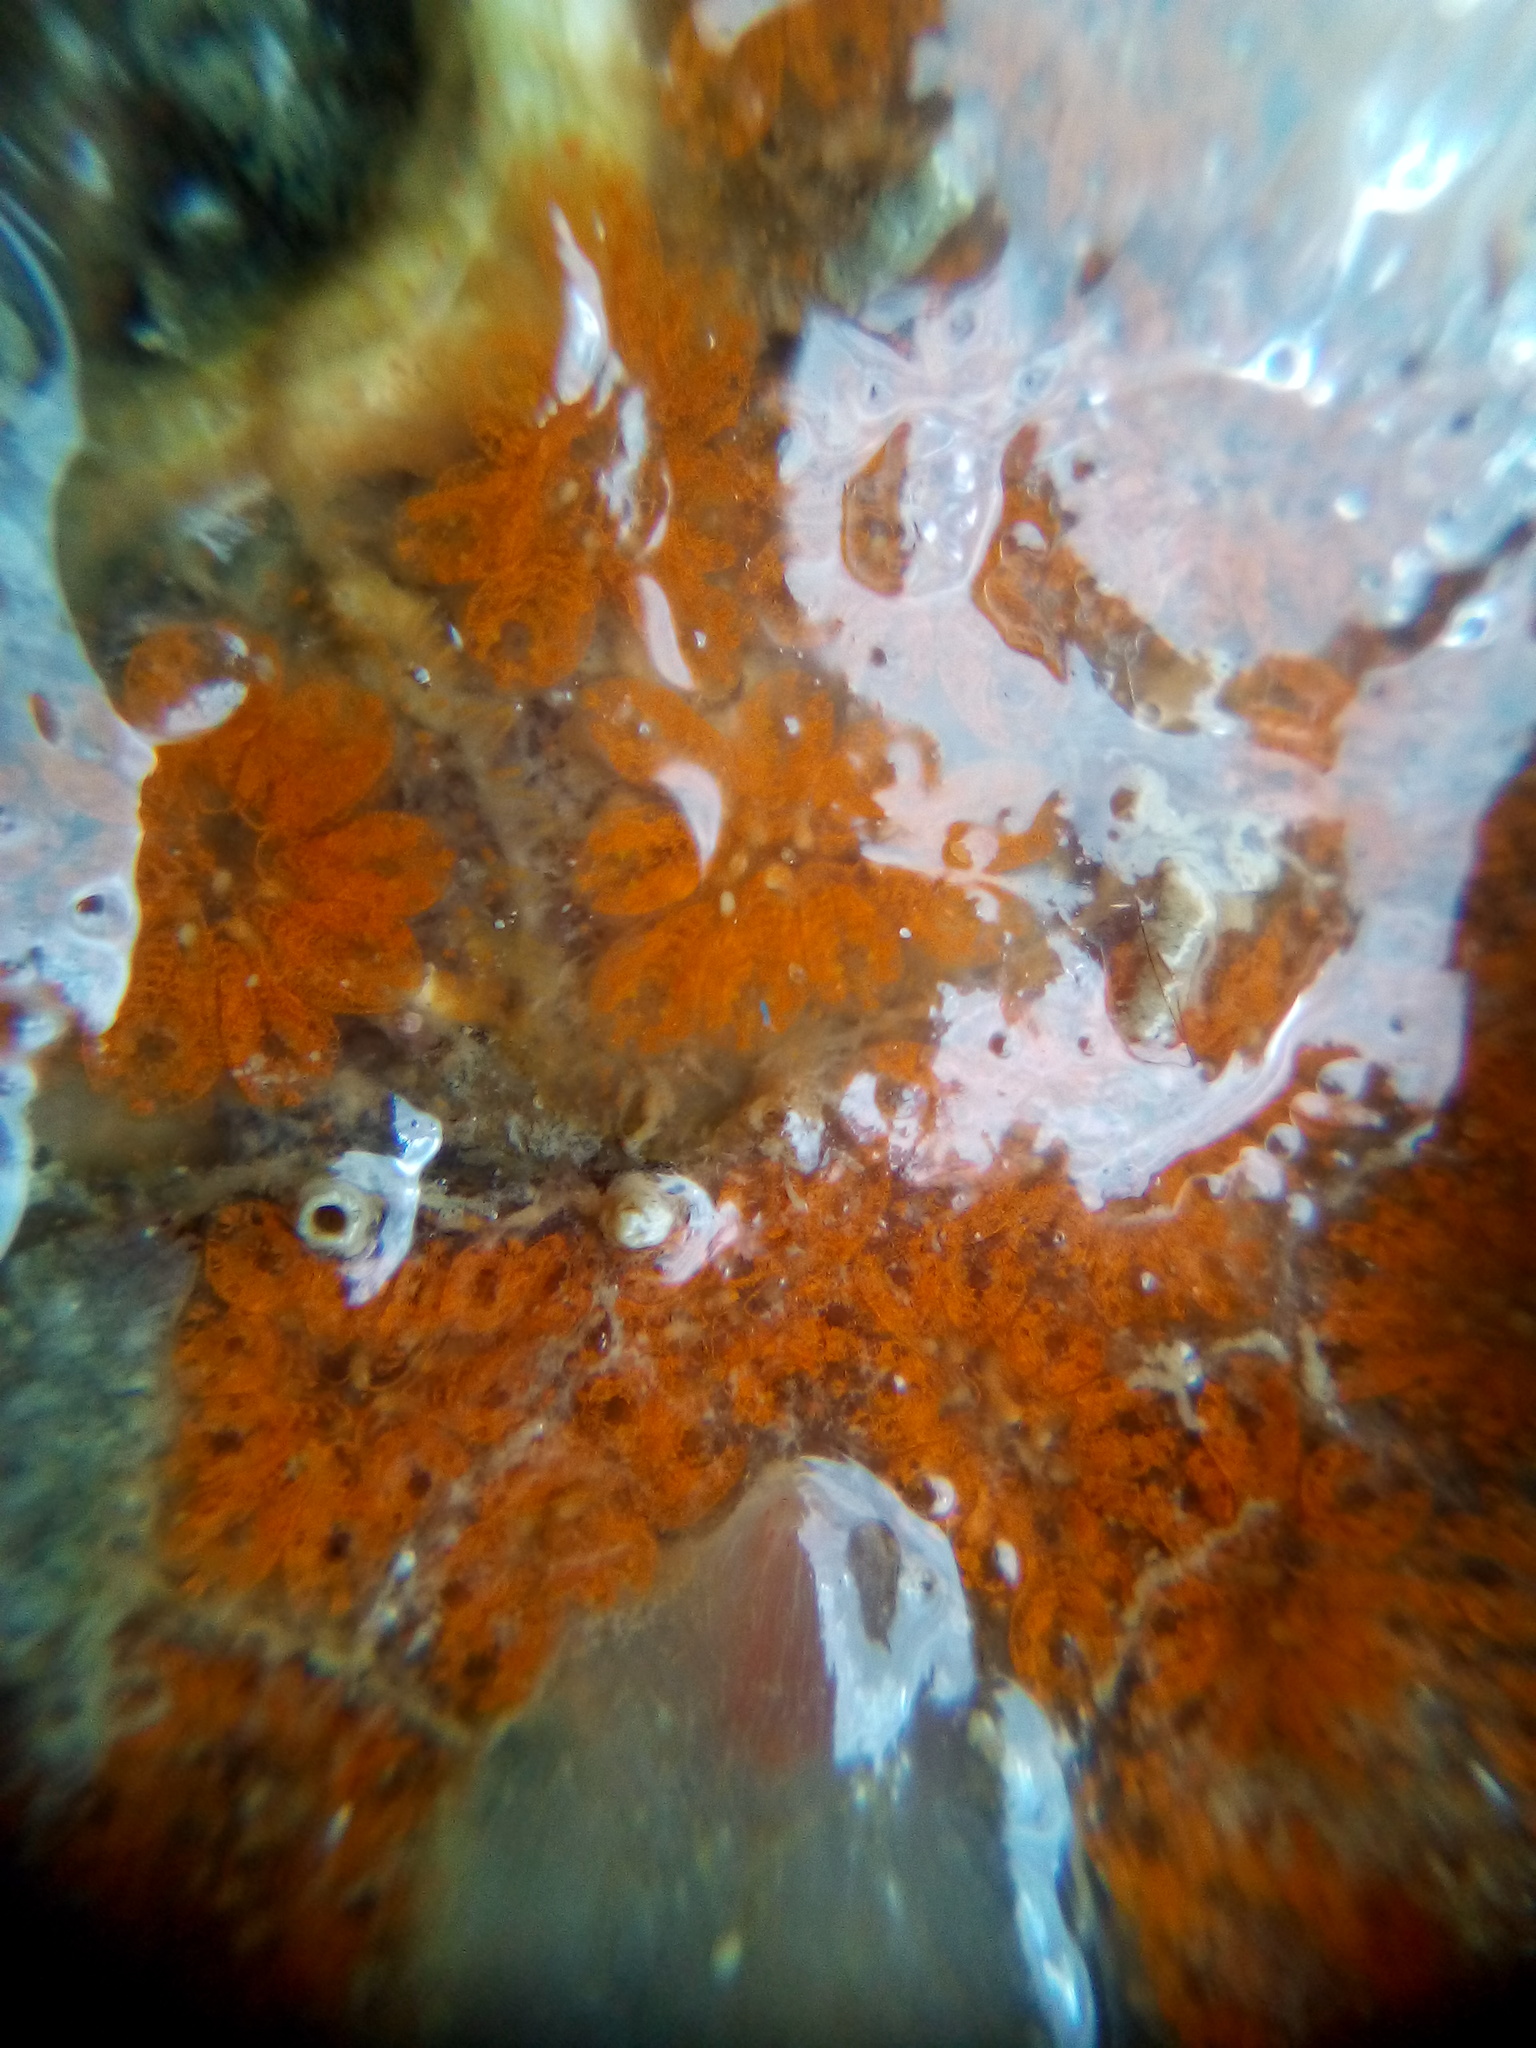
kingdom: Animalia
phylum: Chordata
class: Ascidiacea
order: Stolidobranchia
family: Styelidae
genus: Botryllus
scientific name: Botryllus schlosseri
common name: Golden star tunicate
